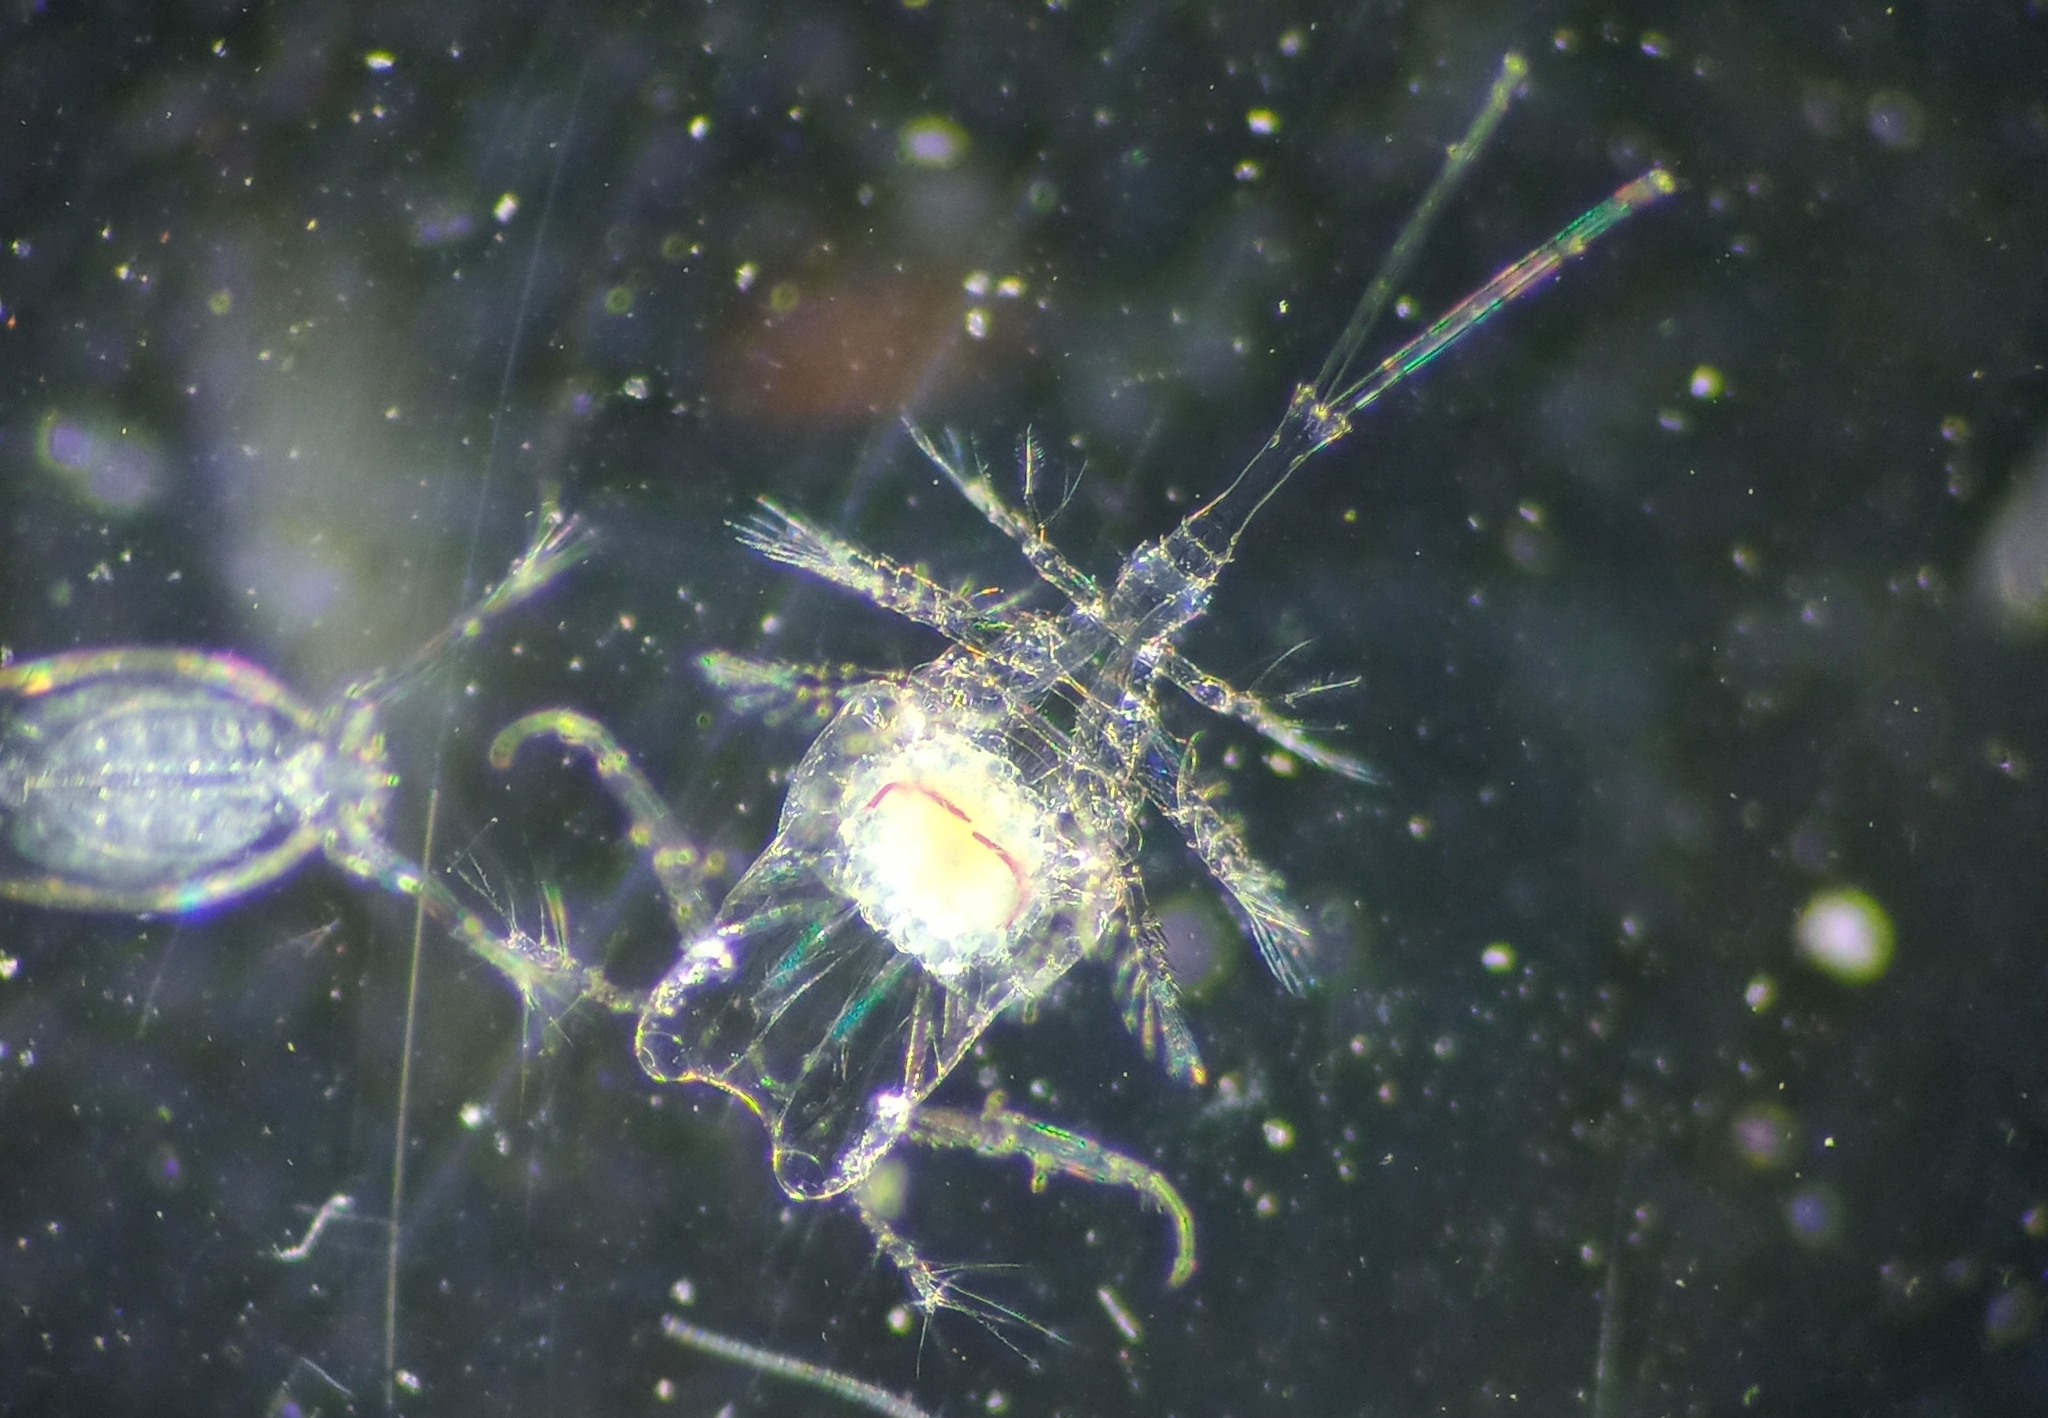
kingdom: Animalia
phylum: Arthropoda
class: Copepoda
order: Cyclopoida
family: Sapphirinidae
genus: Copilia
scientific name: Copilia mirabilis
